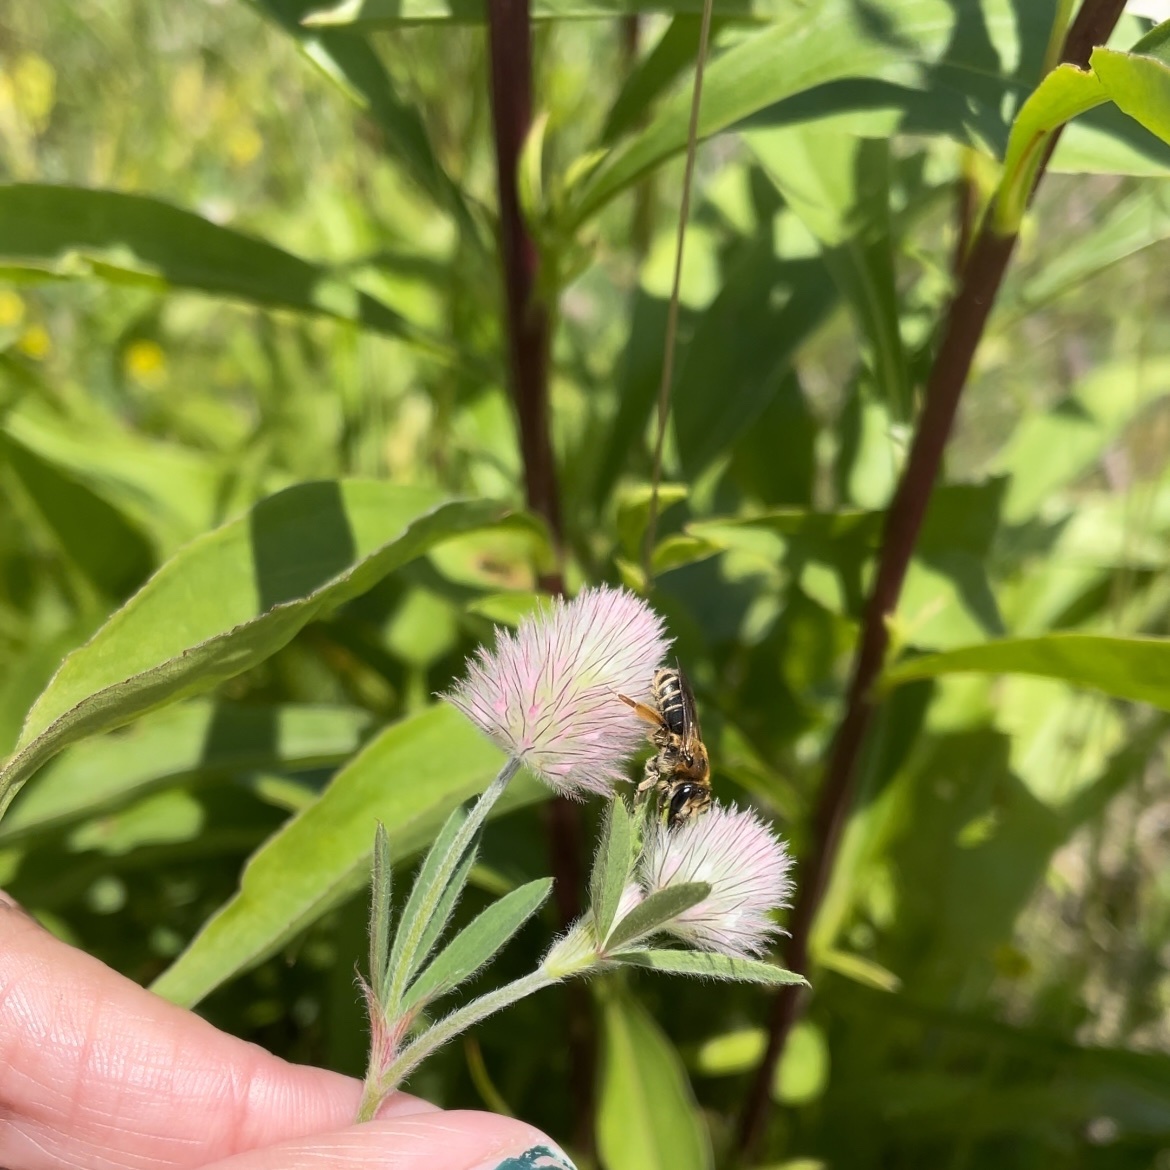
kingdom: Animalia
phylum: Arthropoda
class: Insecta
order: Hymenoptera
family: Andrenidae
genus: Andrena
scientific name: Andrena wilkella
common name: Wilke's mining bee
